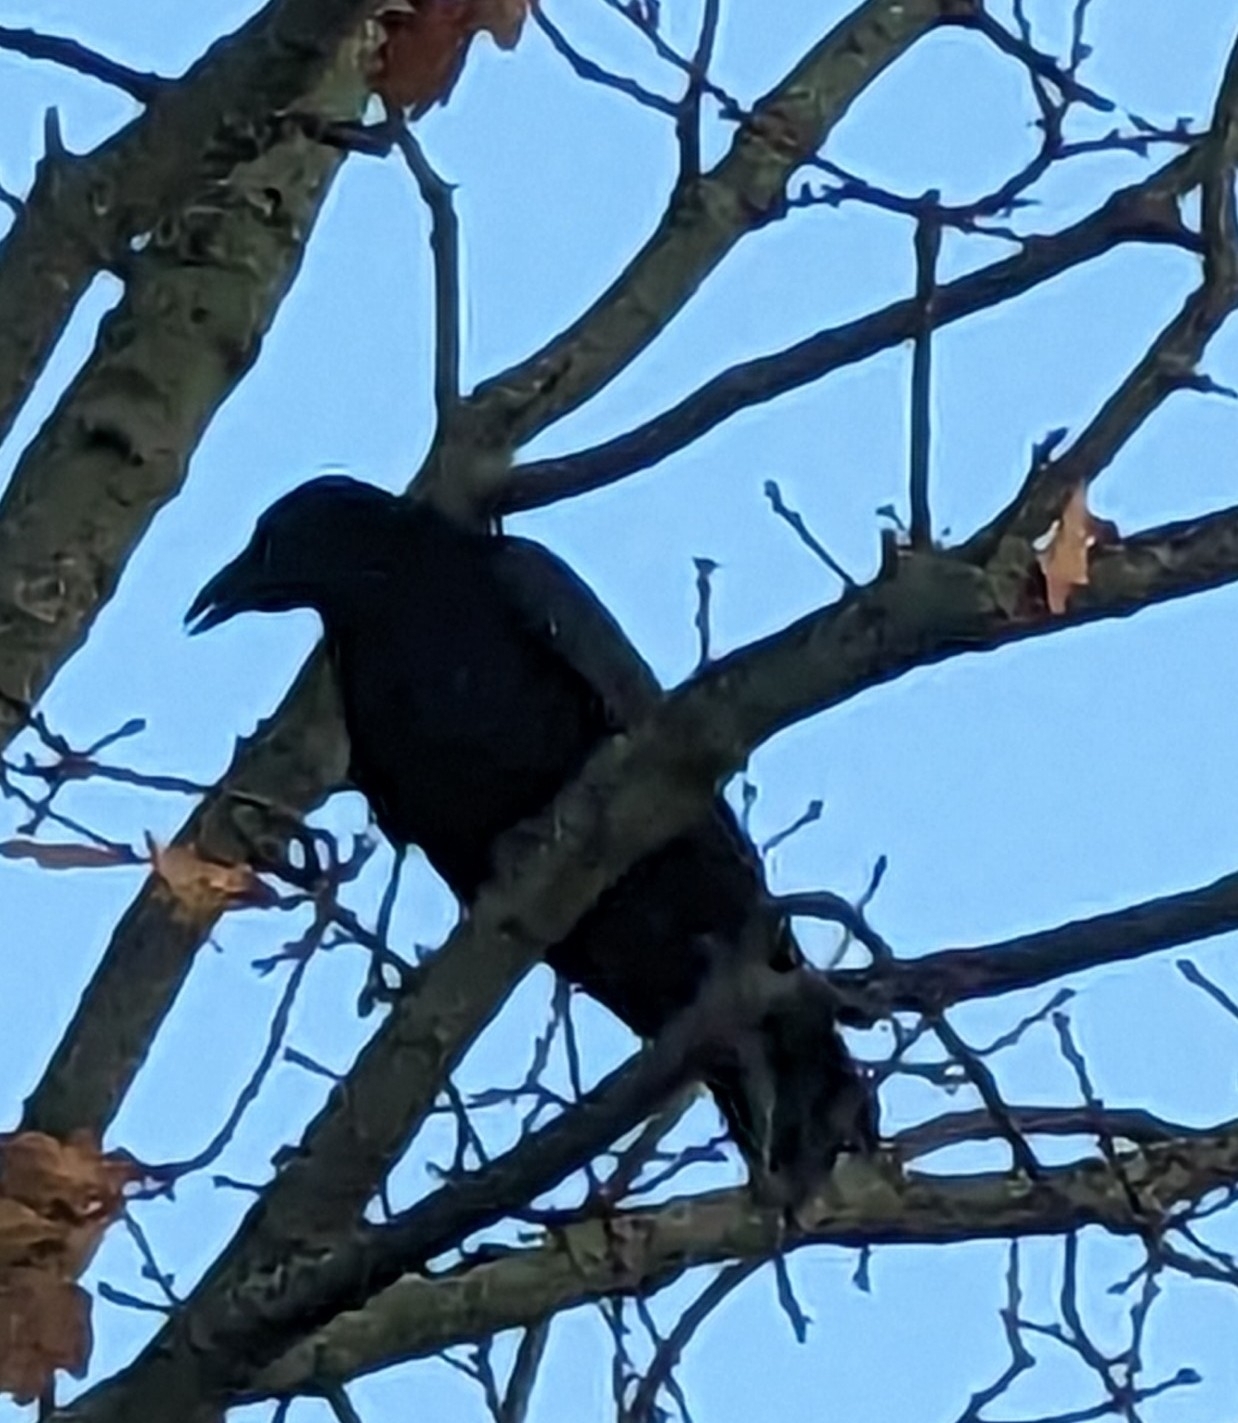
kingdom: Animalia
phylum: Chordata
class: Aves
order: Passeriformes
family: Corvidae
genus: Corvus
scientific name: Corvus corone
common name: Carrion crow
